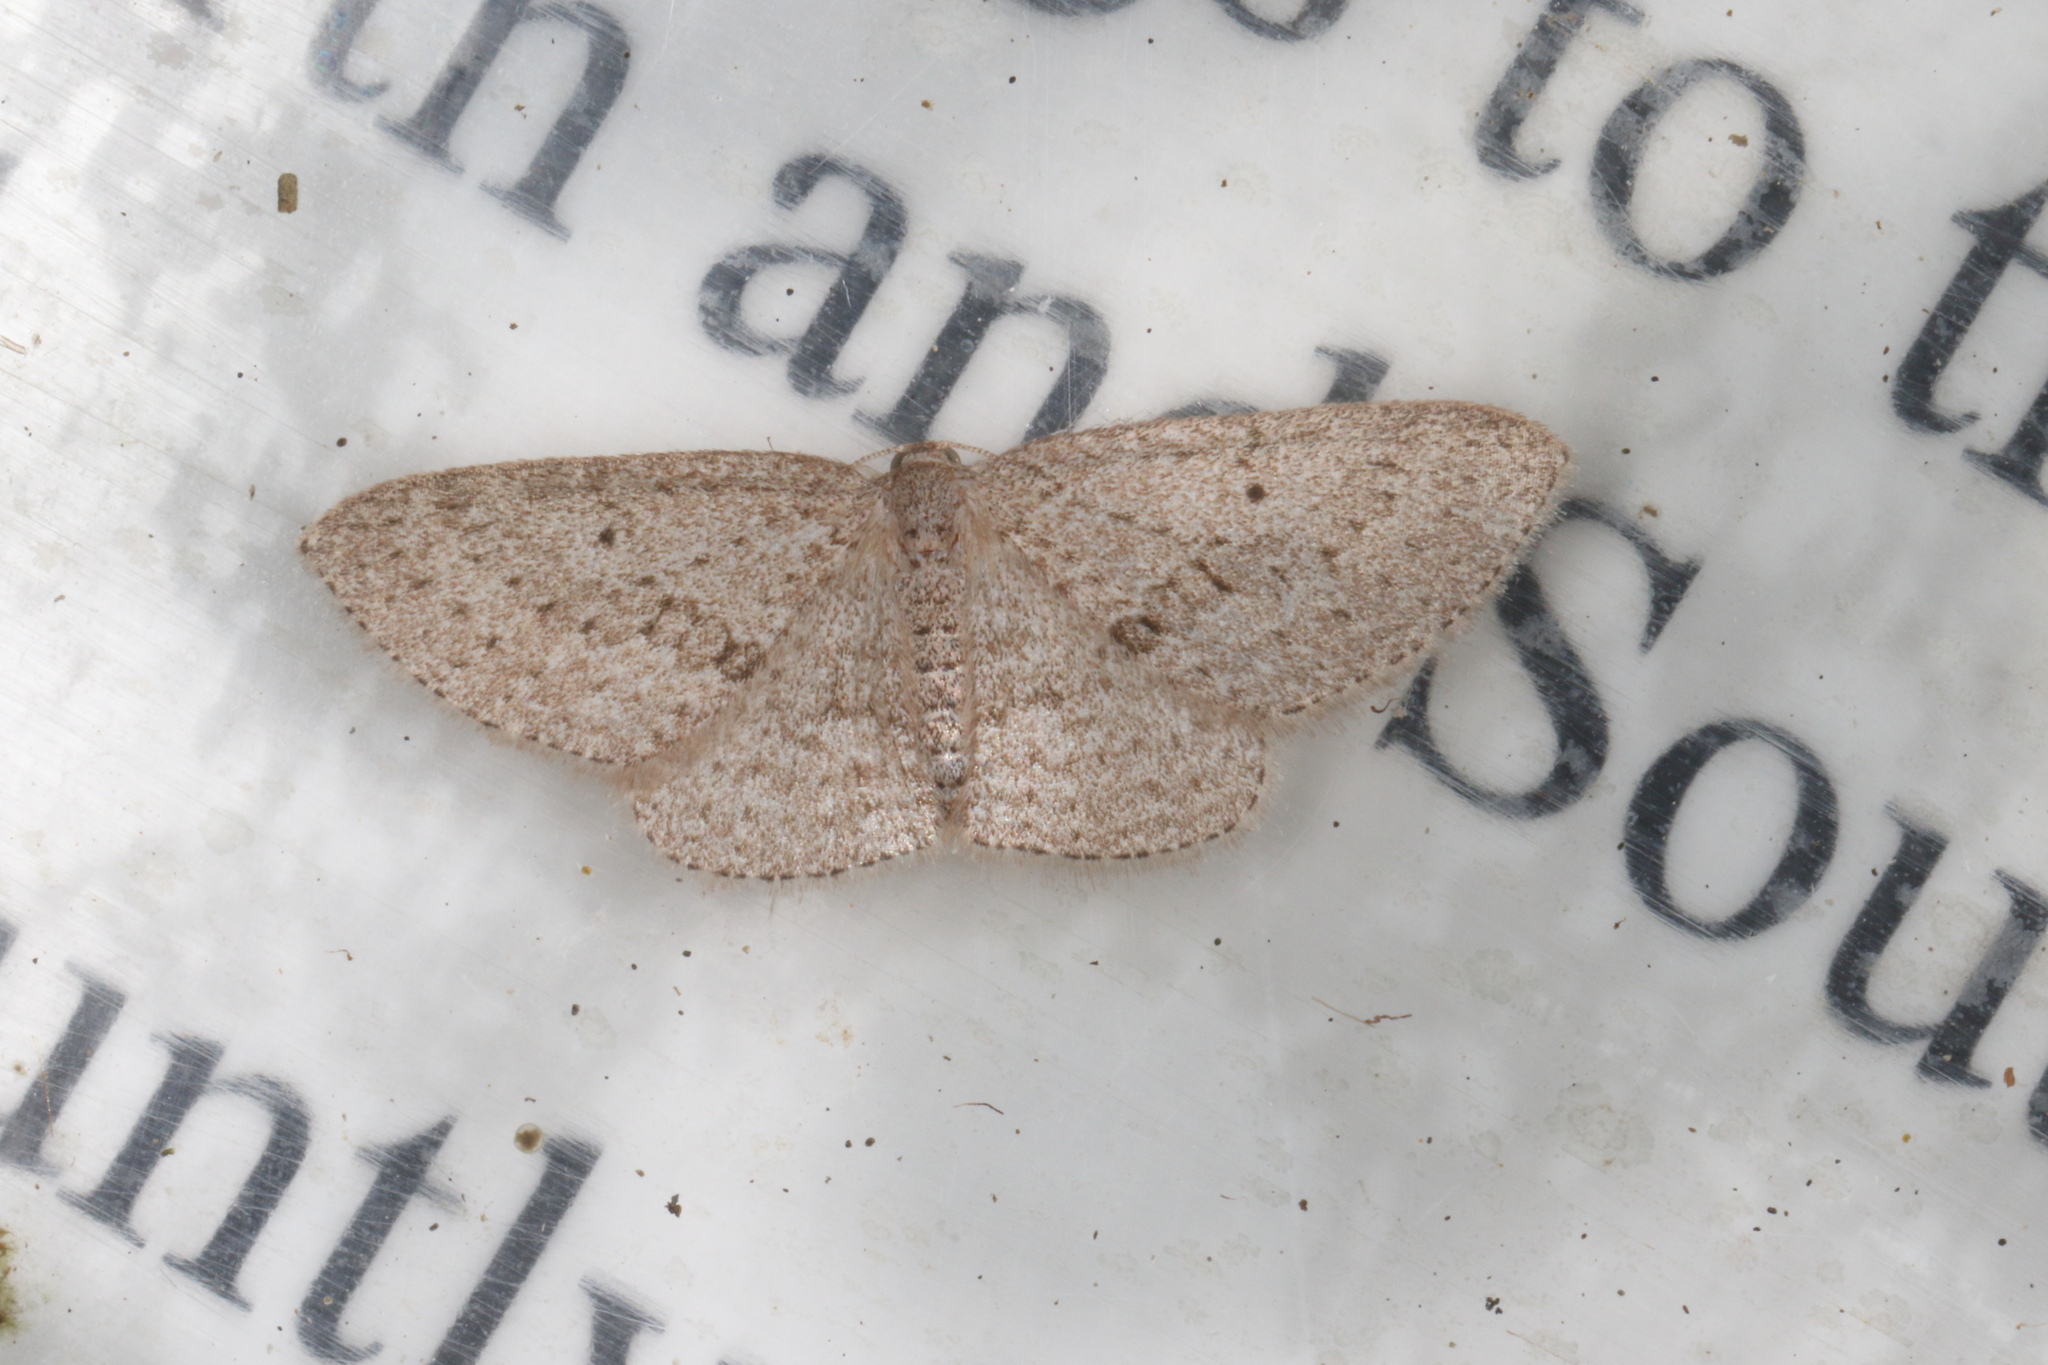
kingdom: Animalia
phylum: Arthropoda
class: Insecta
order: Lepidoptera
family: Geometridae
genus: Poecilasthena
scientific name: Poecilasthena schistaria
